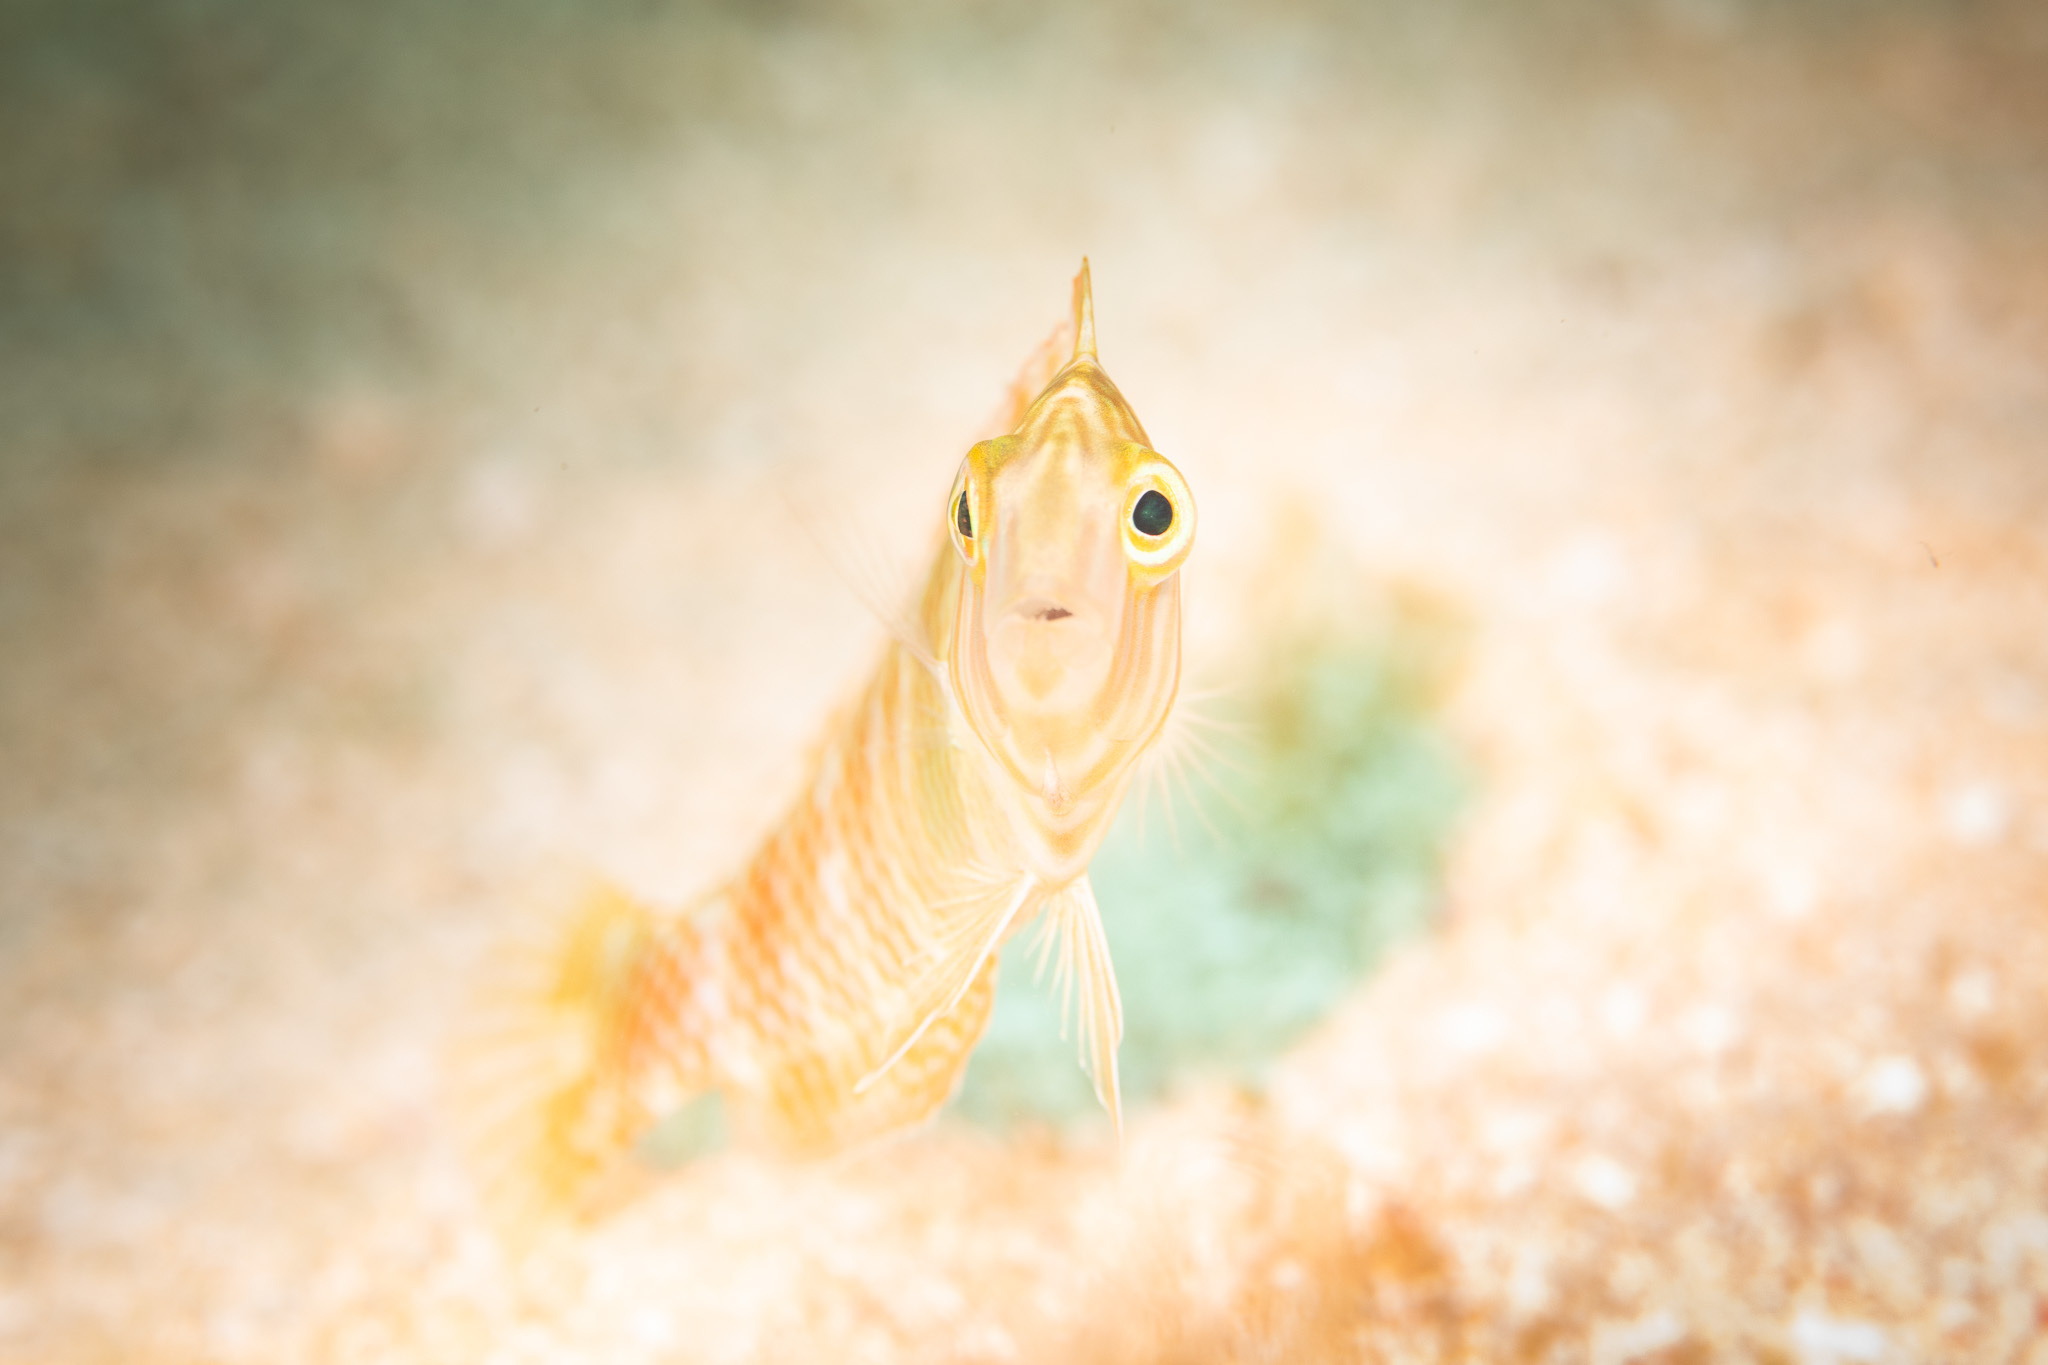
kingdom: Animalia
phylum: Chordata
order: Perciformes
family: Labridae
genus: Xyrichtys
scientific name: Xyrichtys splendens
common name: Green razorfish
